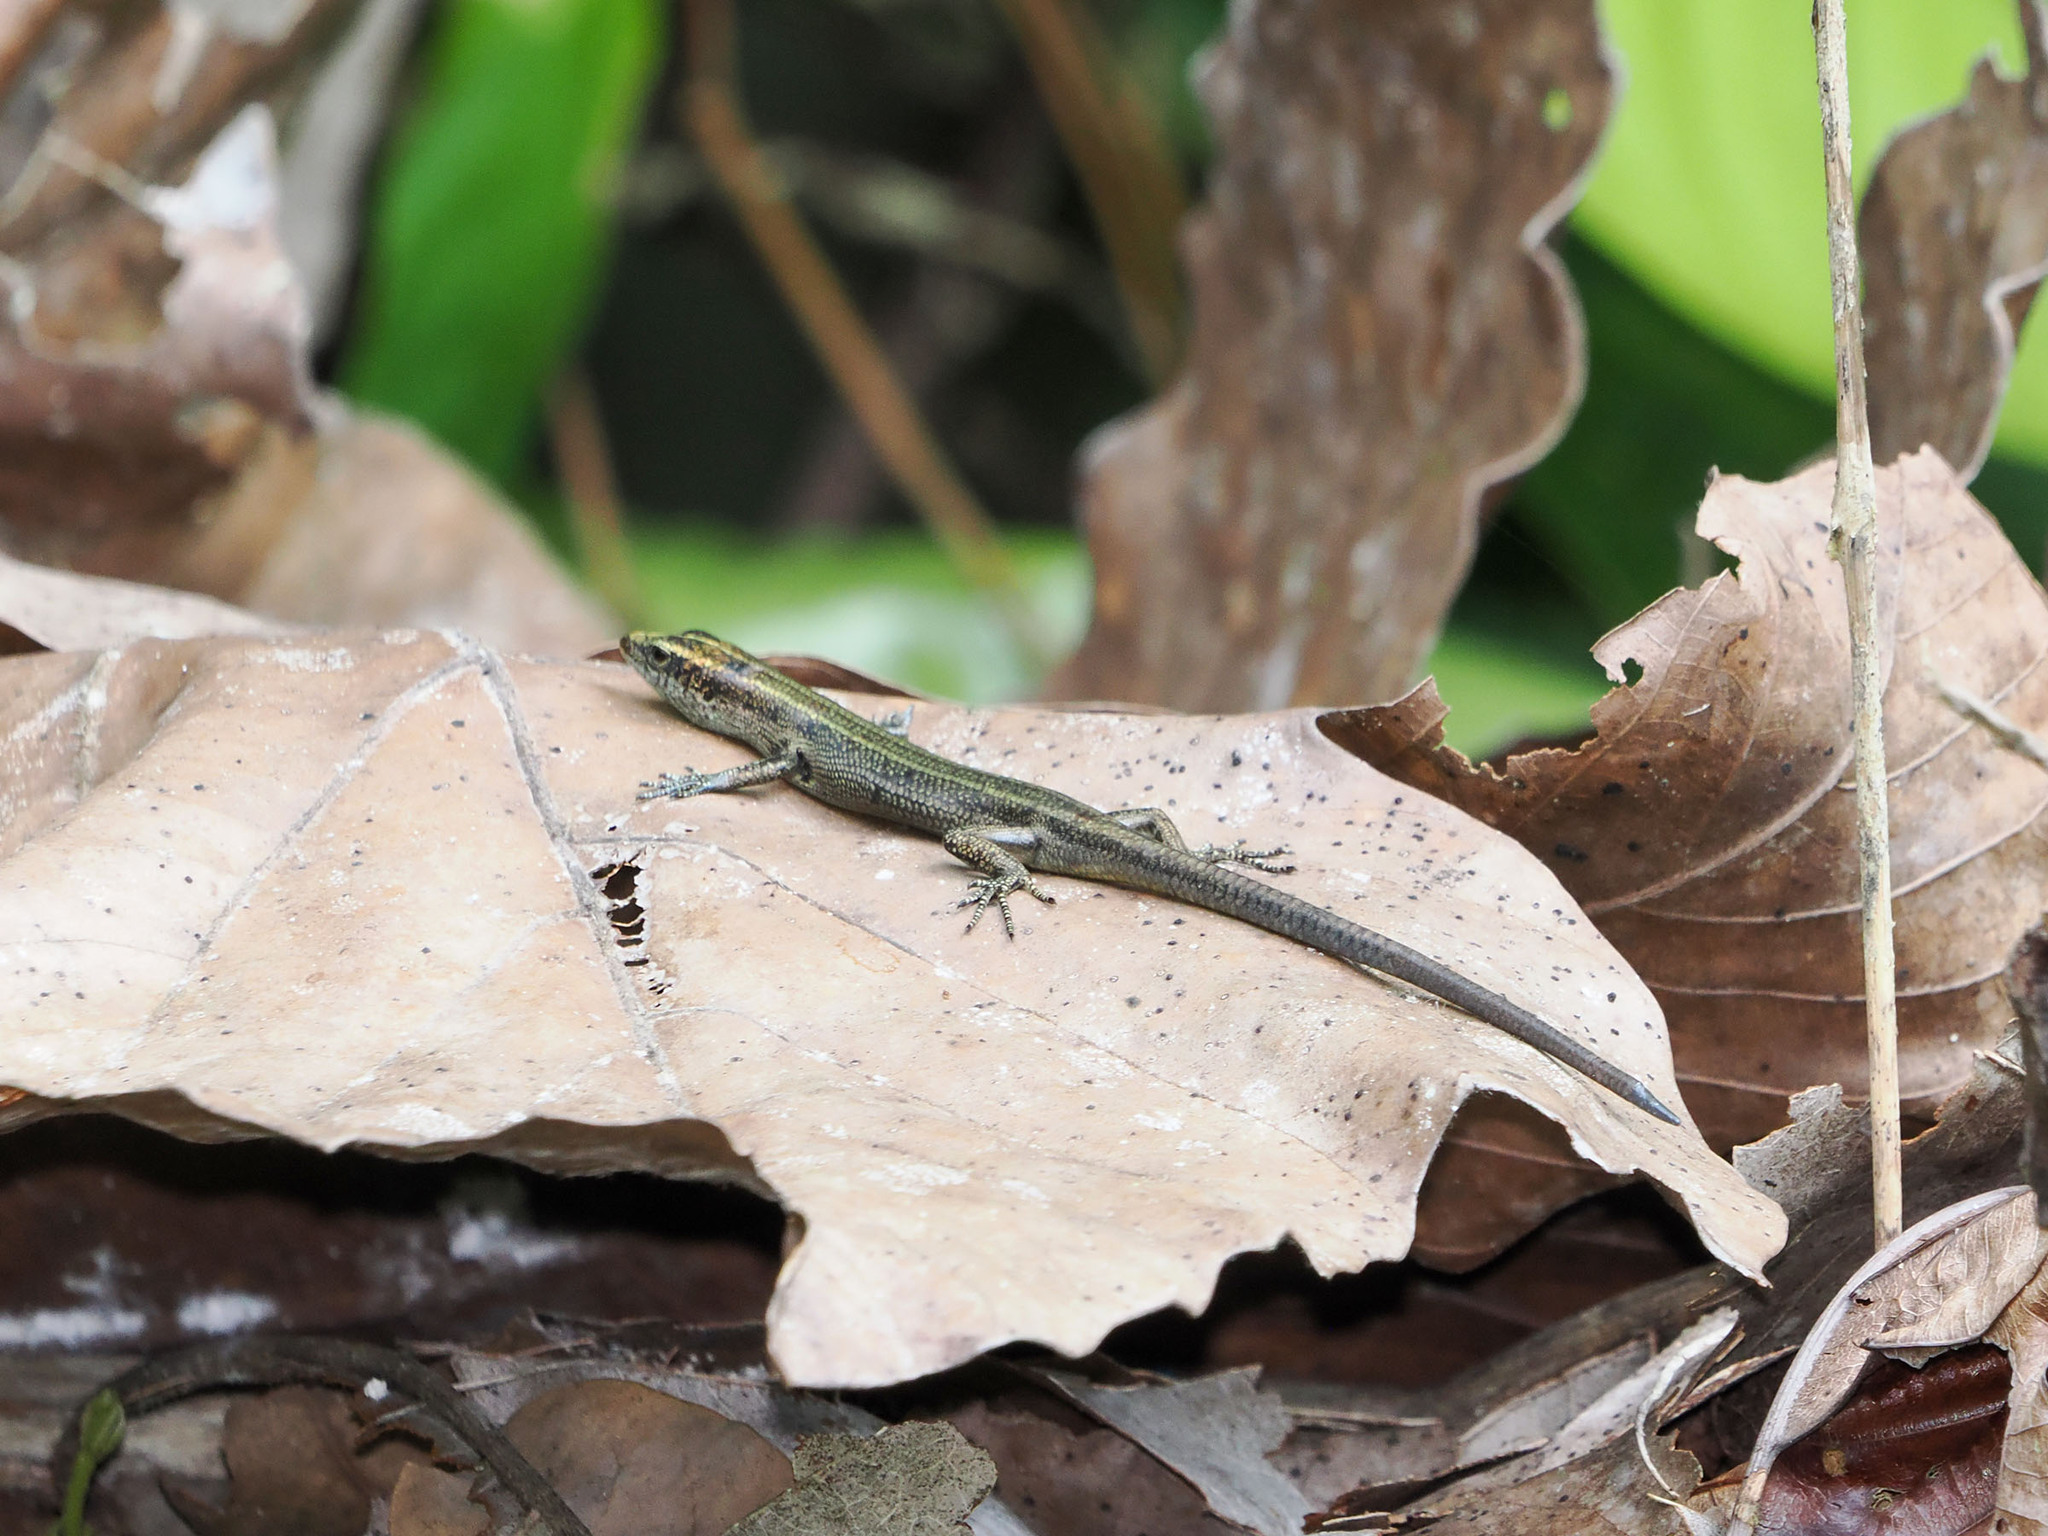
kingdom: Animalia
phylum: Chordata
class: Squamata
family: Scincidae
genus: Emoia
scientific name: Emoia caeruleocauda
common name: Pacific bluetail skink
